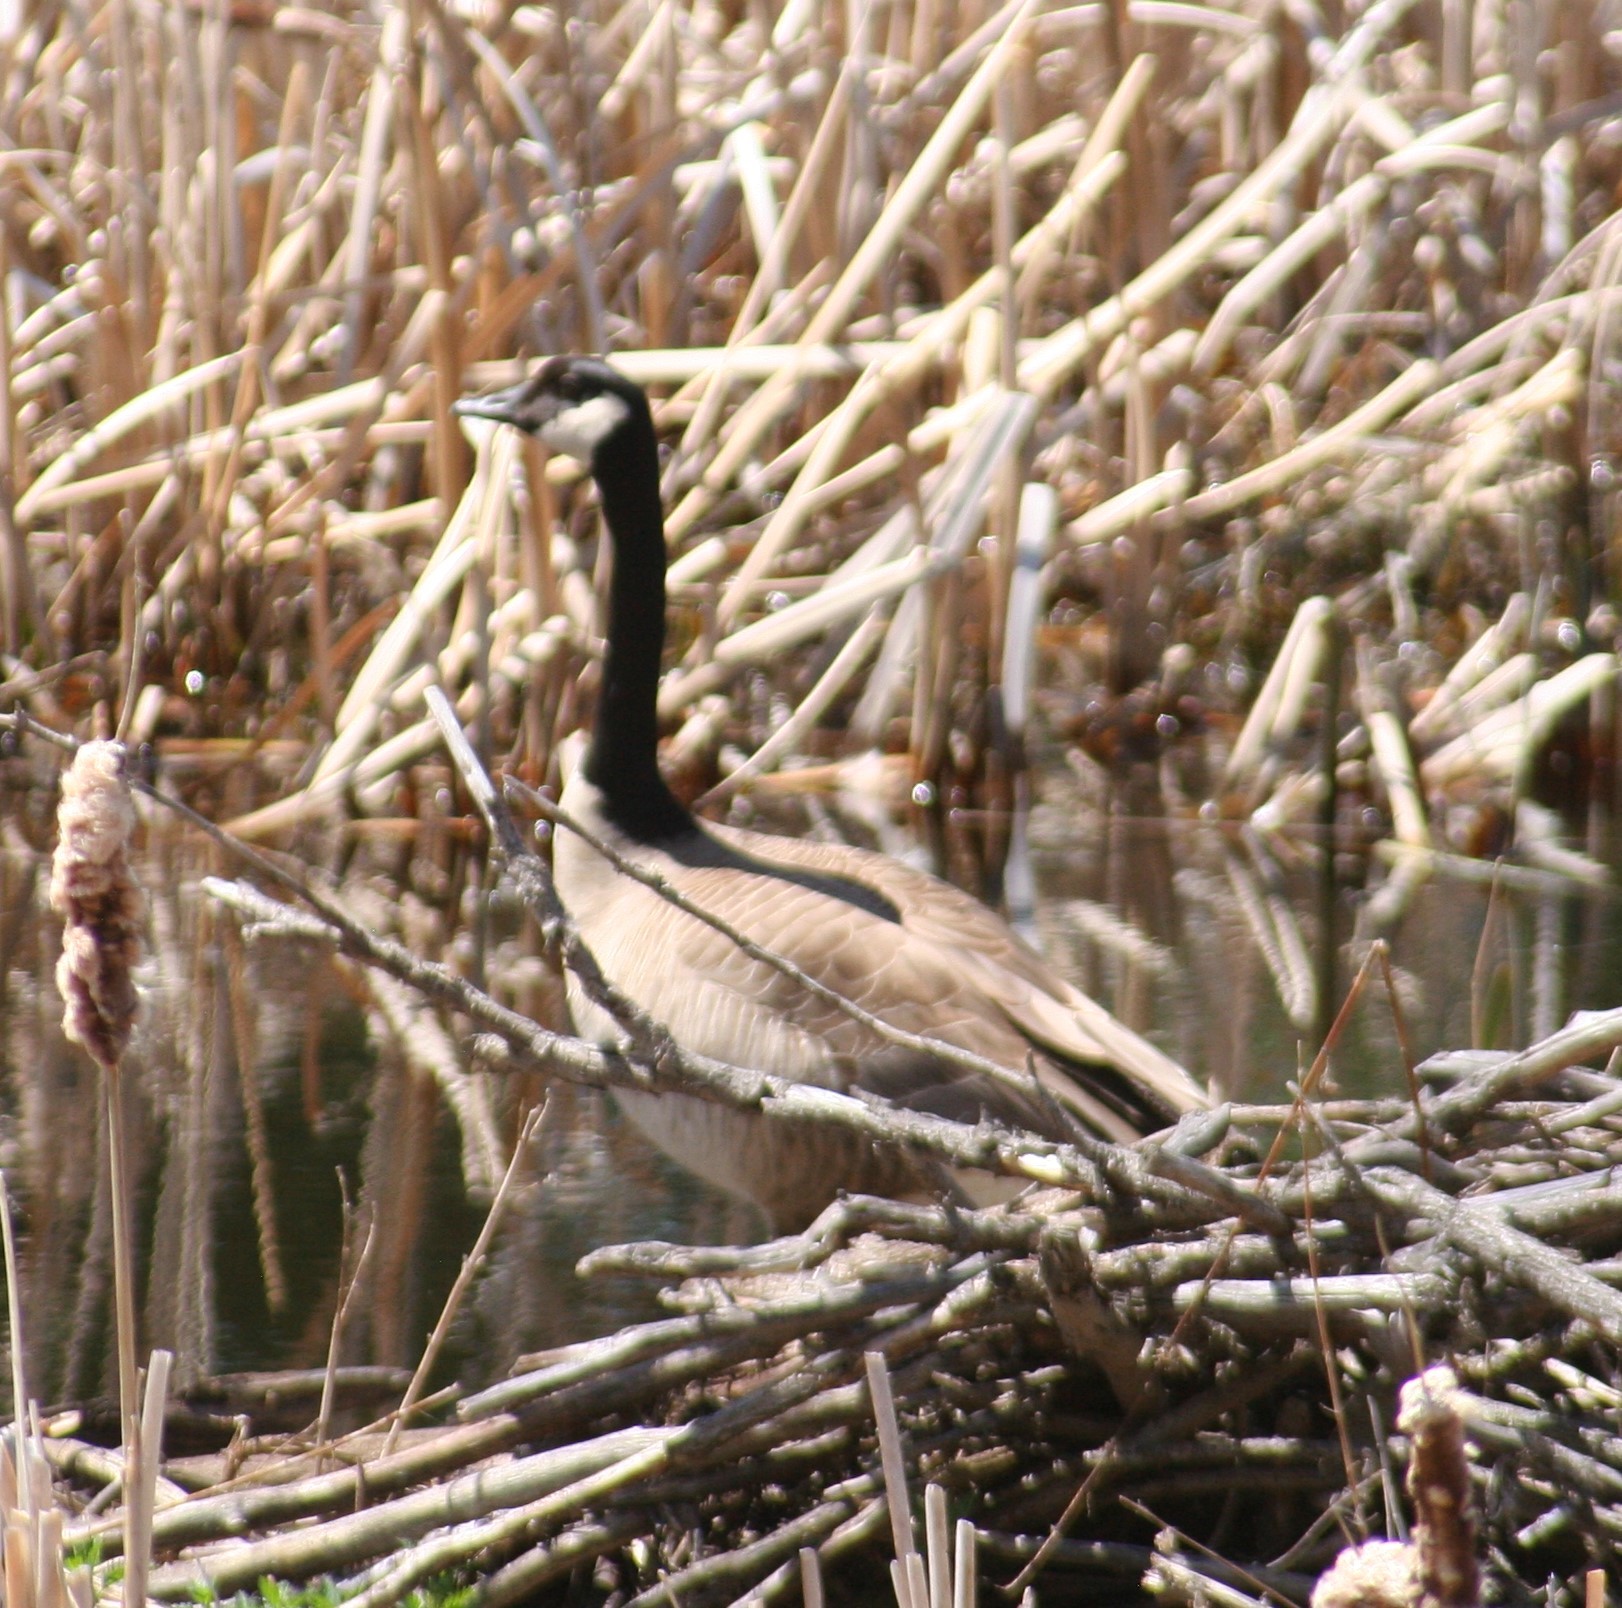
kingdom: Animalia
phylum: Chordata
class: Aves
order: Anseriformes
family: Anatidae
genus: Branta
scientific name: Branta canadensis
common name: Canada goose
